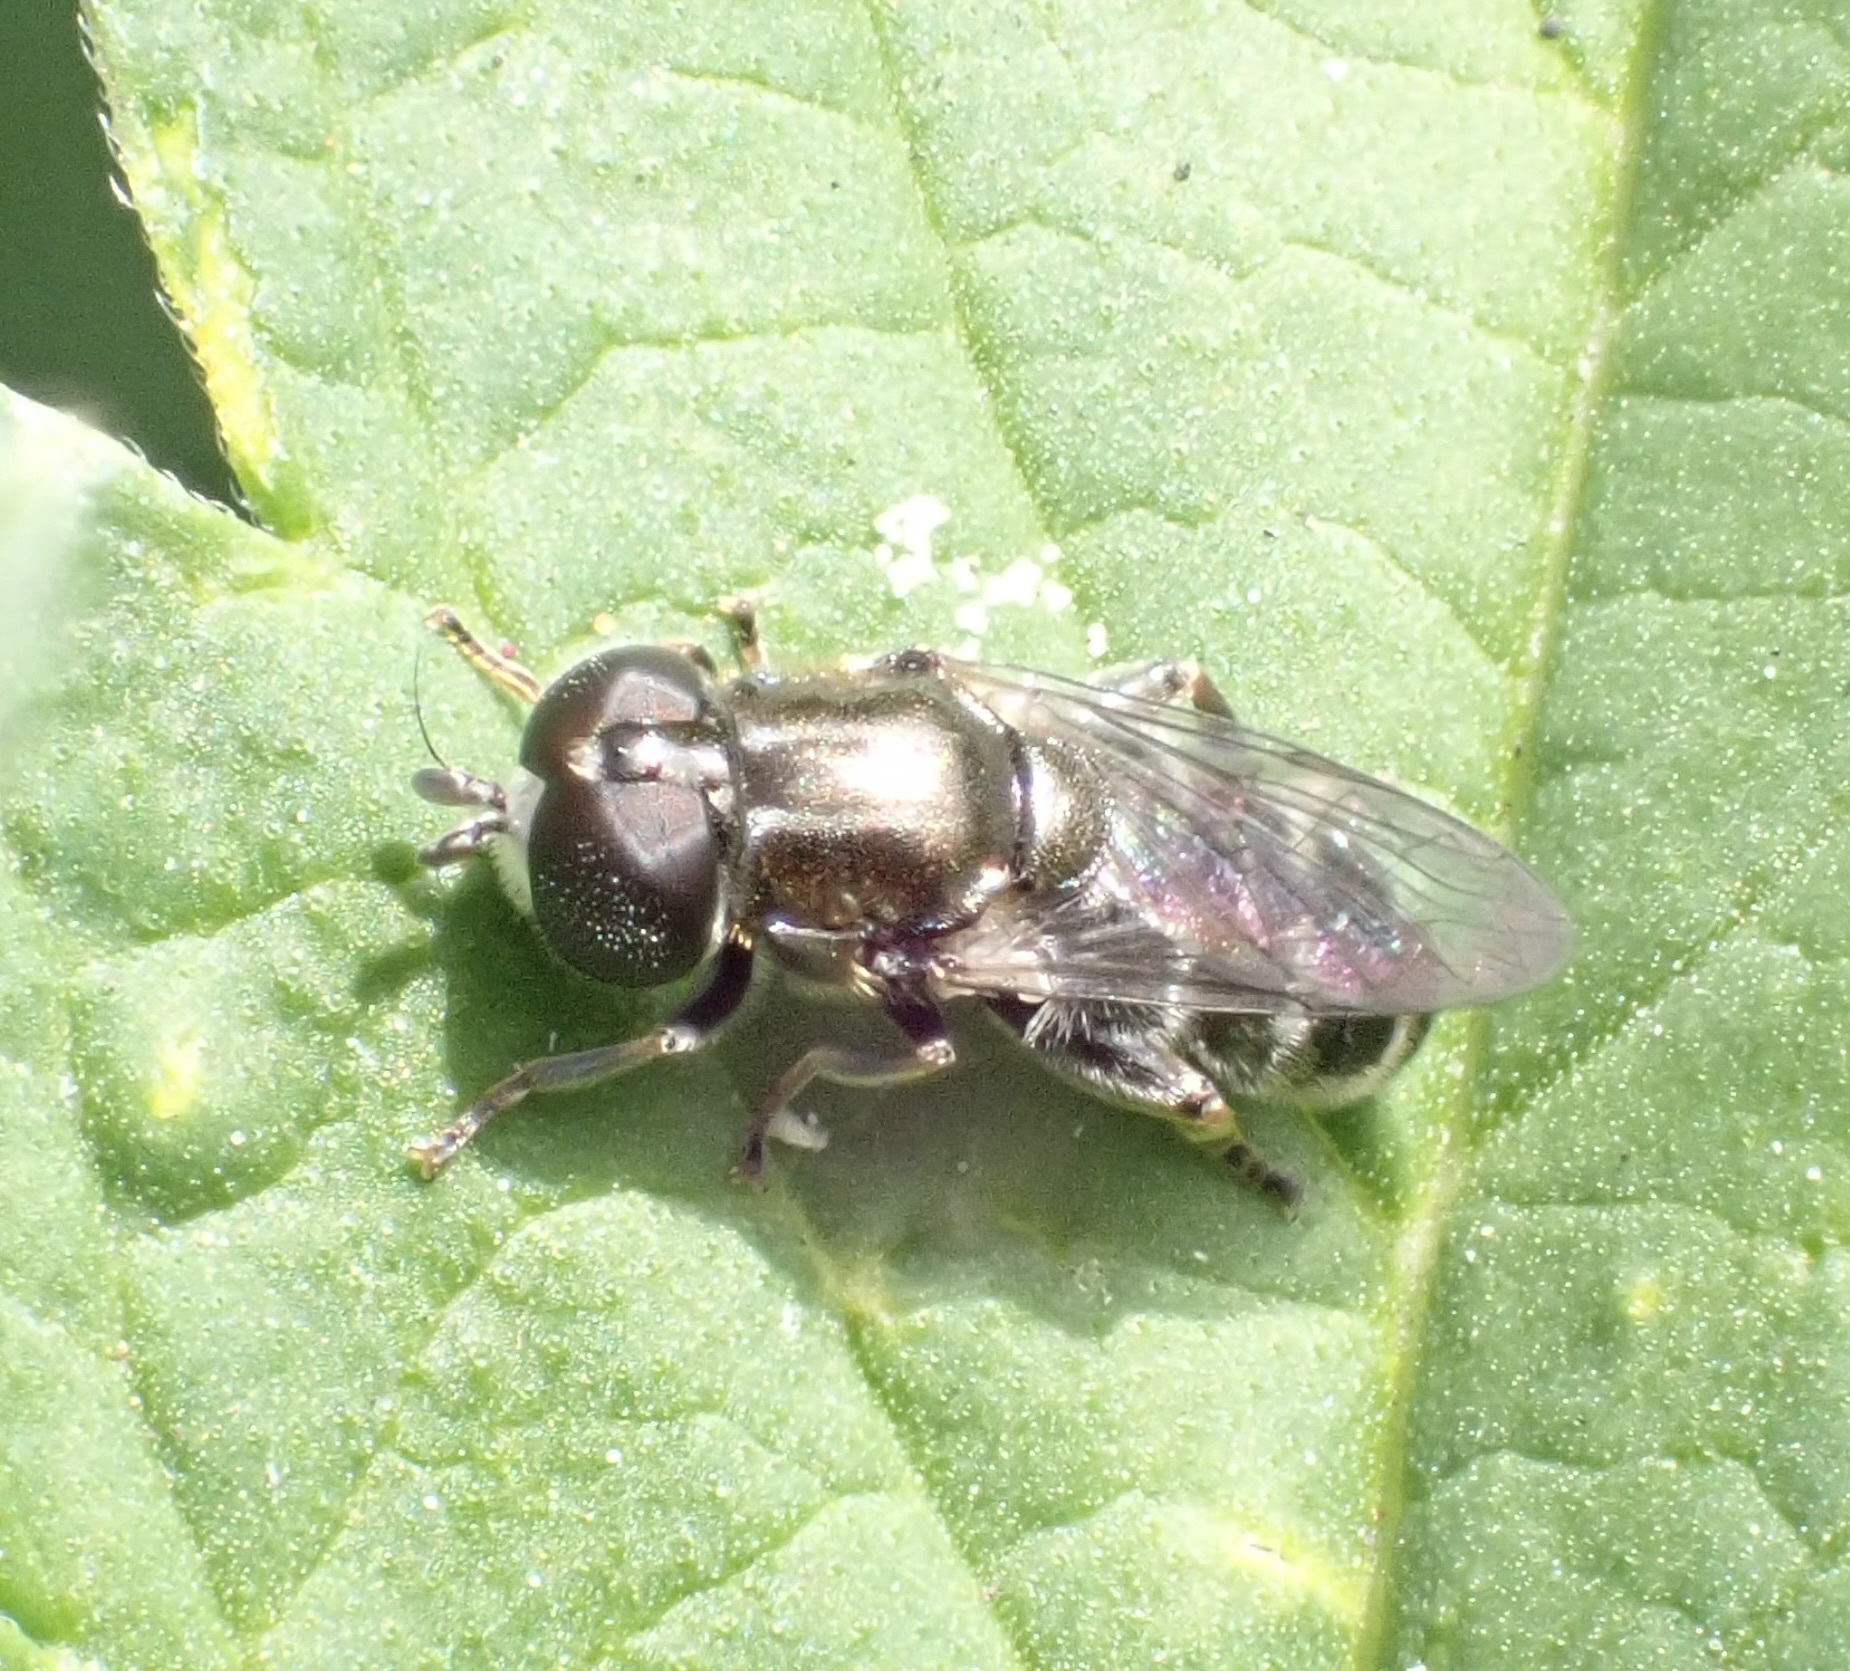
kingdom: Animalia
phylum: Arthropoda
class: Insecta
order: Diptera
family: Syrphidae
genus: Eumerus
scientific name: Eumerus
